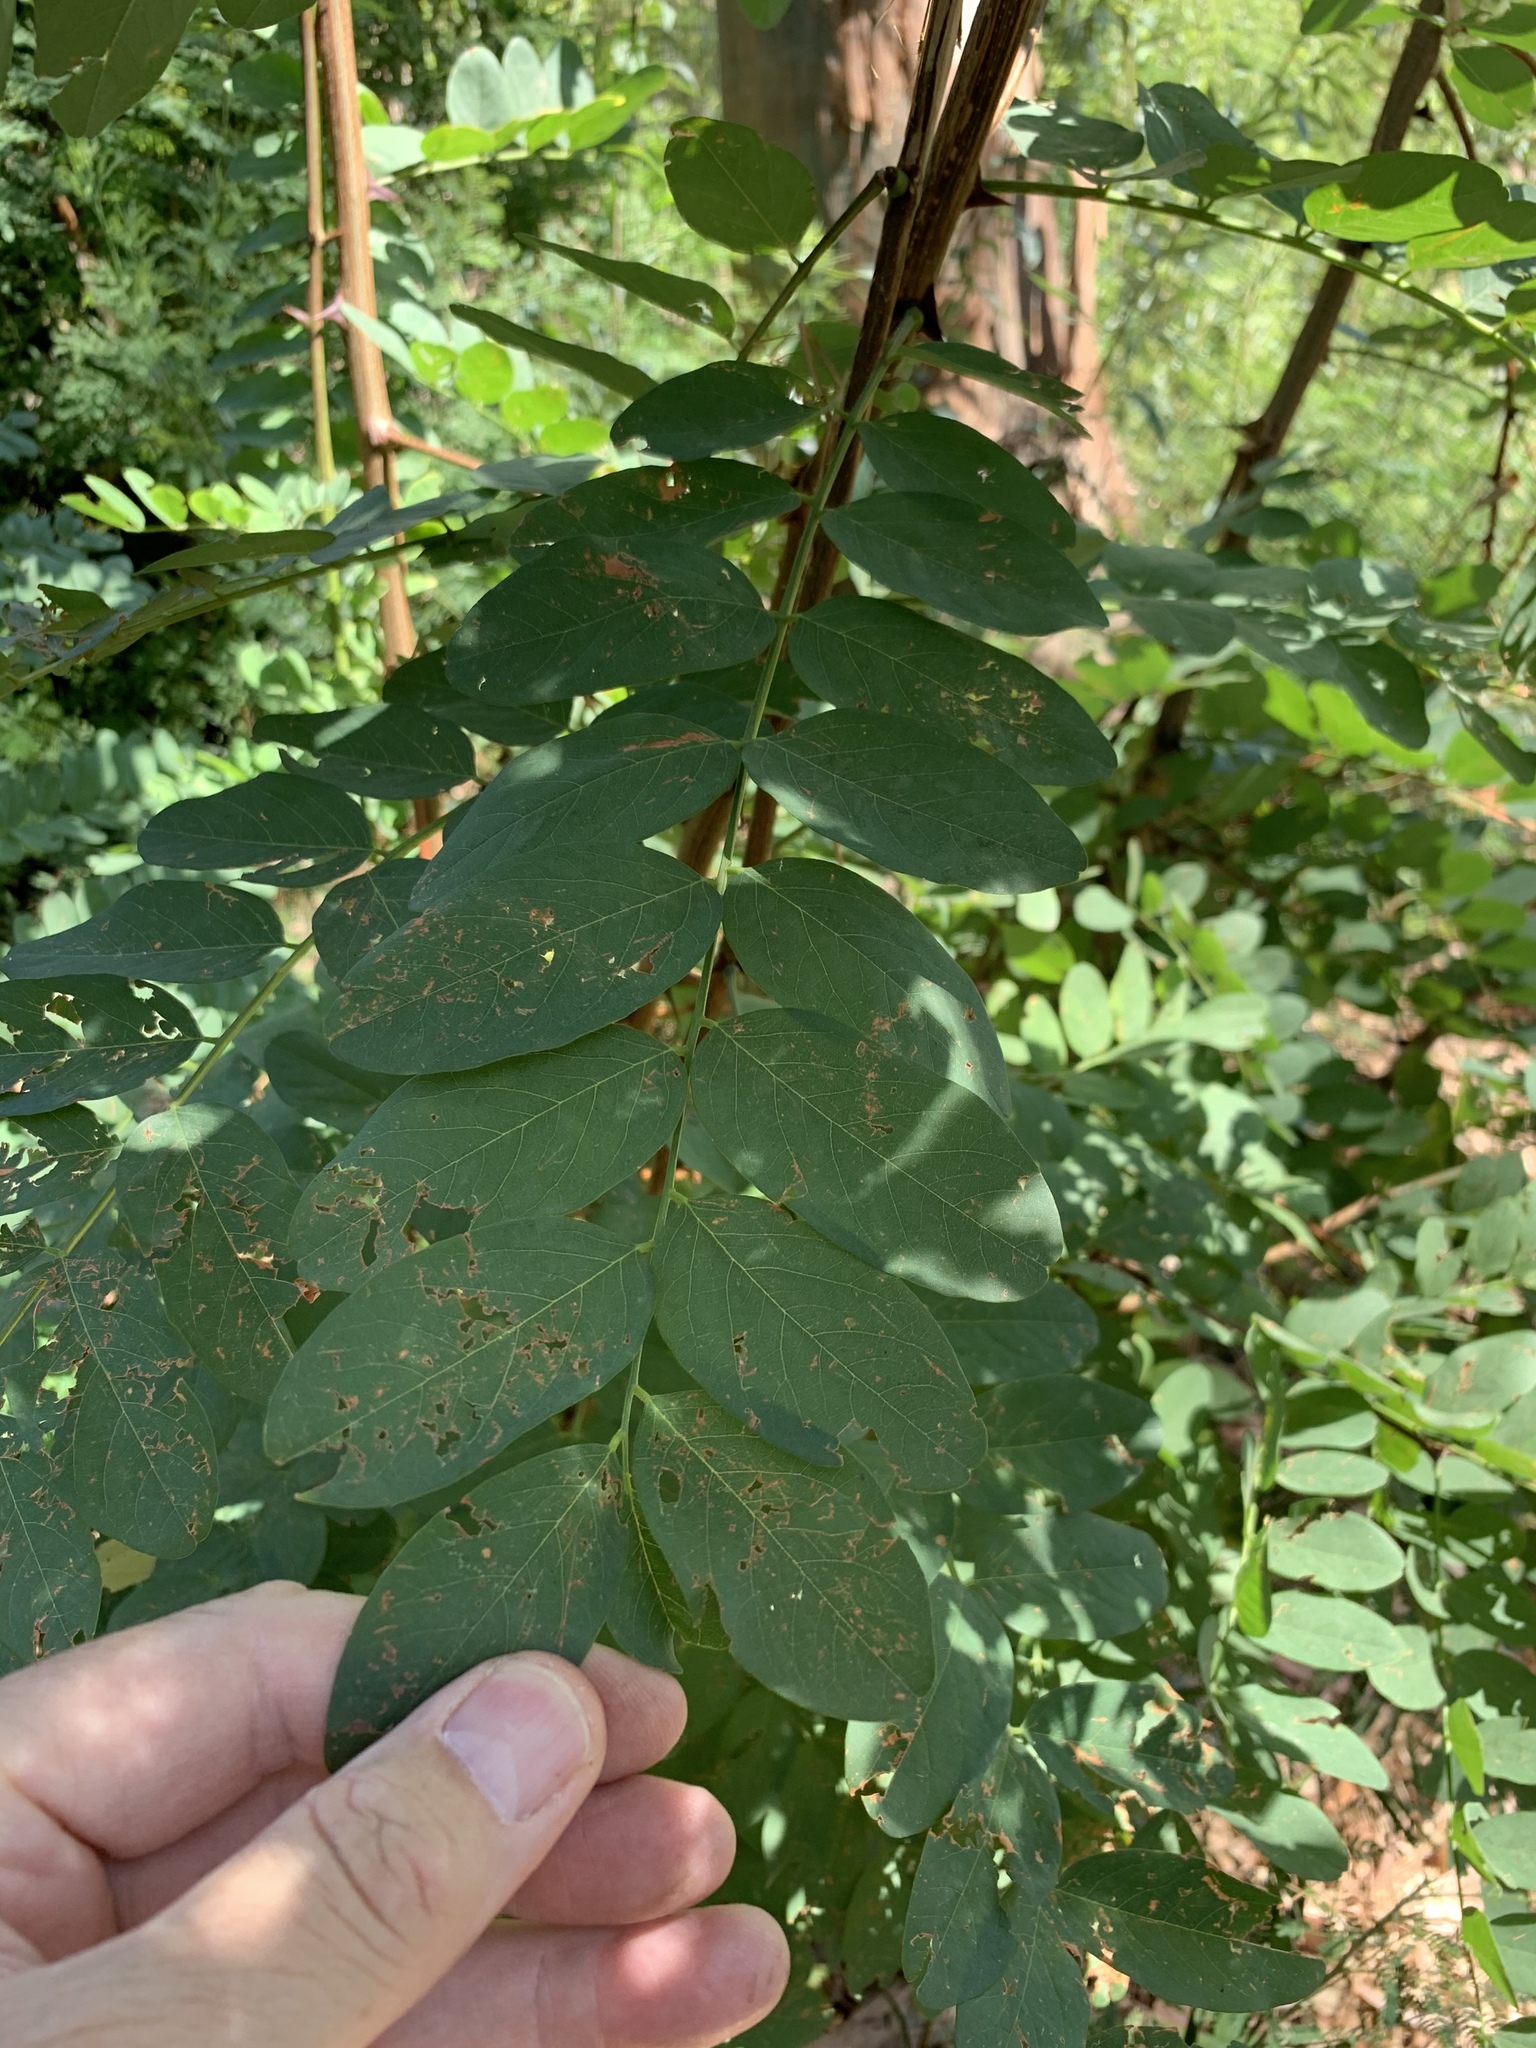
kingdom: Plantae
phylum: Tracheophyta
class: Magnoliopsida
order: Fabales
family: Fabaceae
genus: Robinia
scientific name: Robinia pseudoacacia
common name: Black locust
